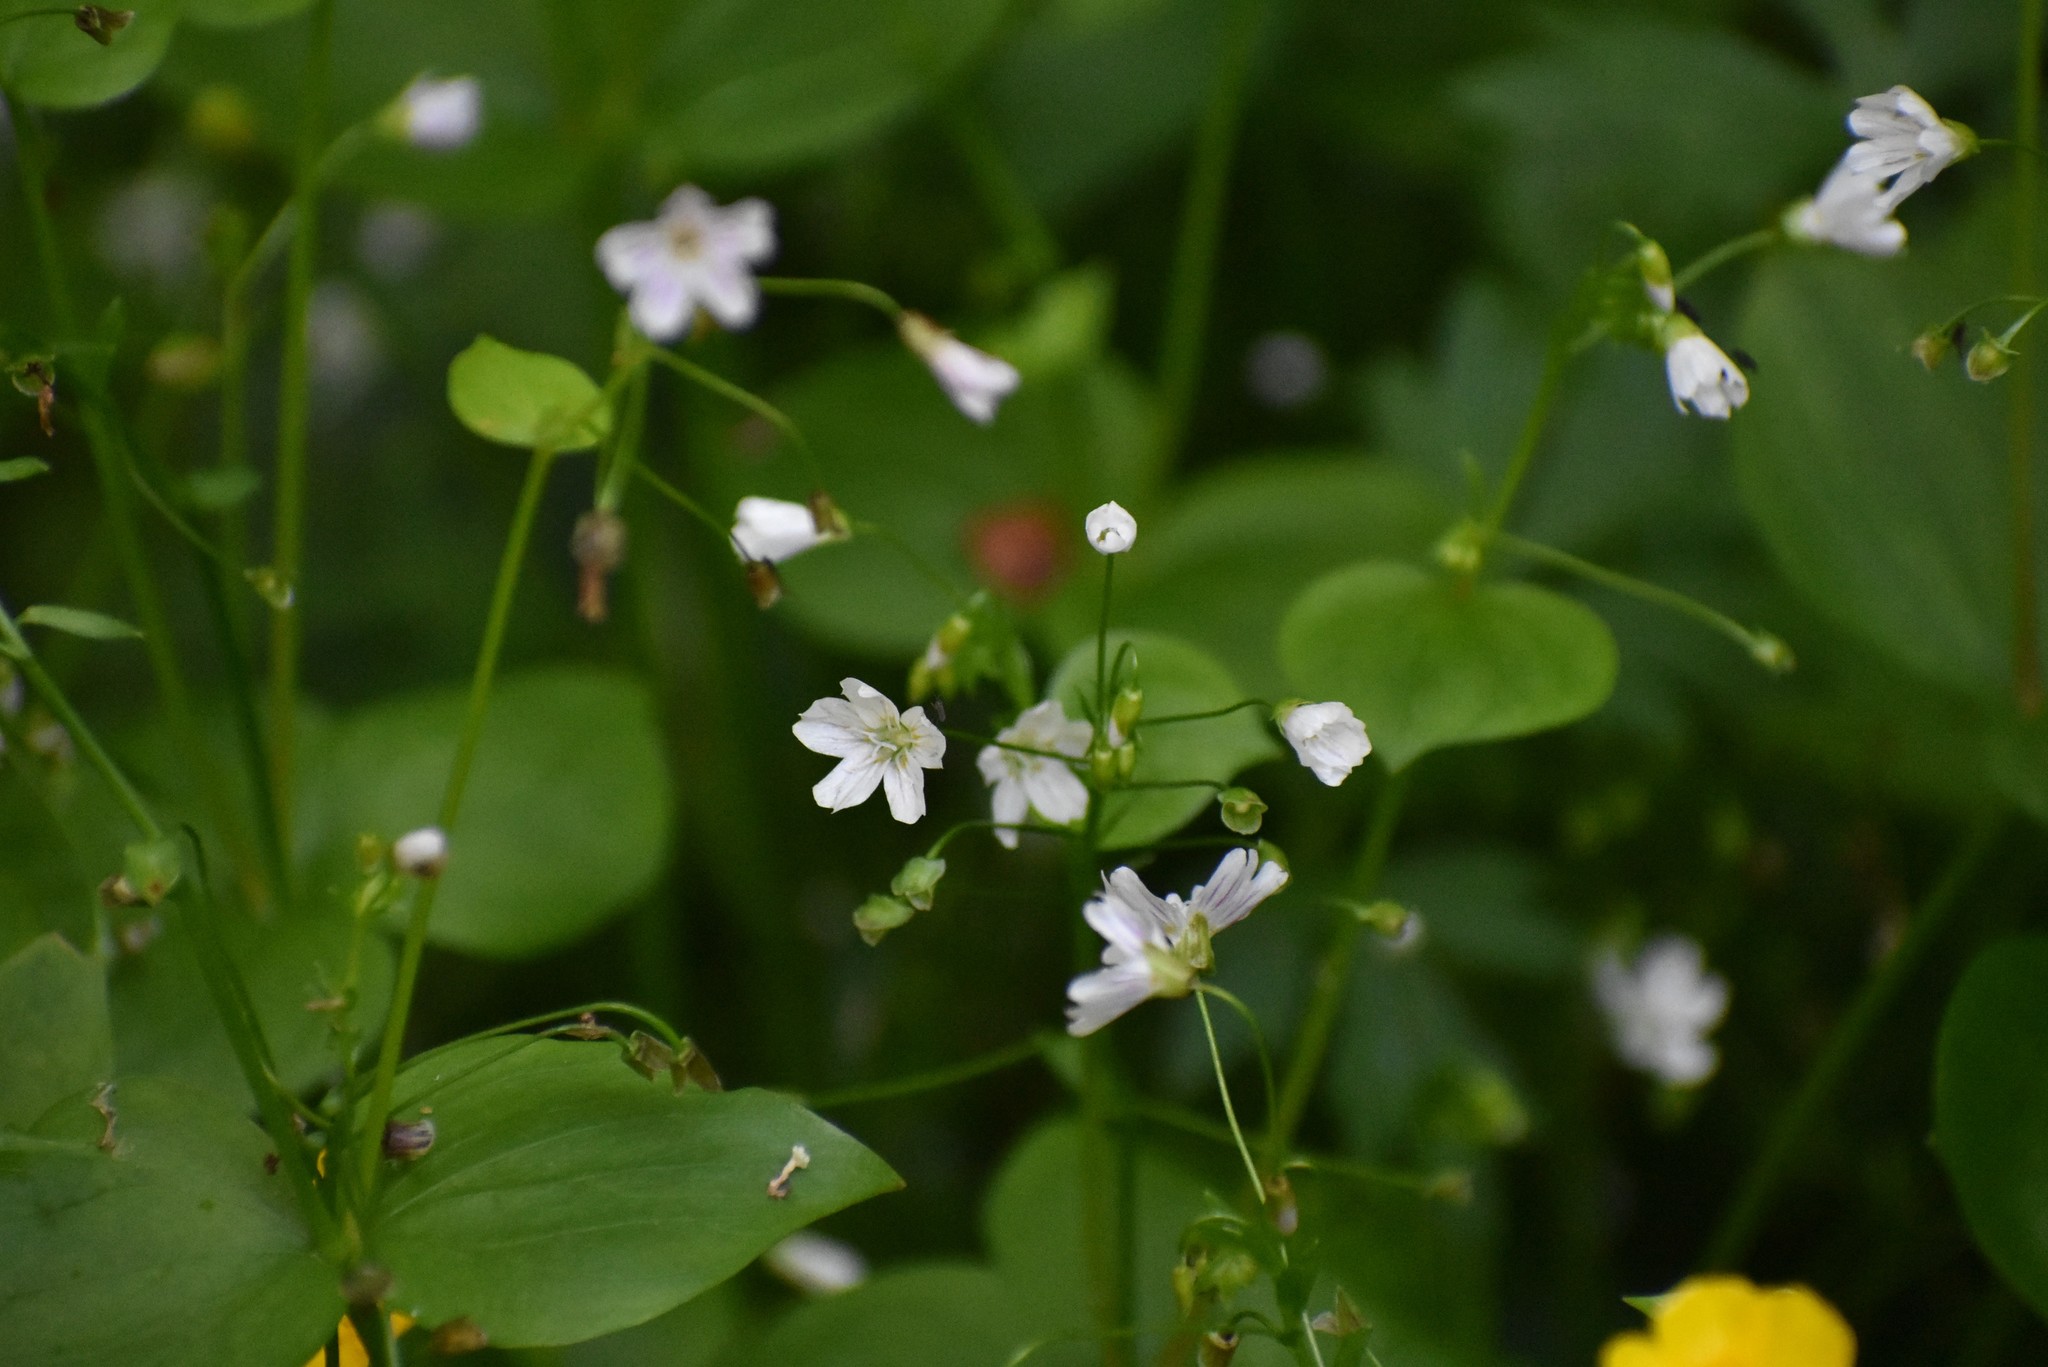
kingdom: Plantae
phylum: Tracheophyta
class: Magnoliopsida
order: Caryophyllales
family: Montiaceae
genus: Claytonia
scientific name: Claytonia sibirica
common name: Pink purslane
